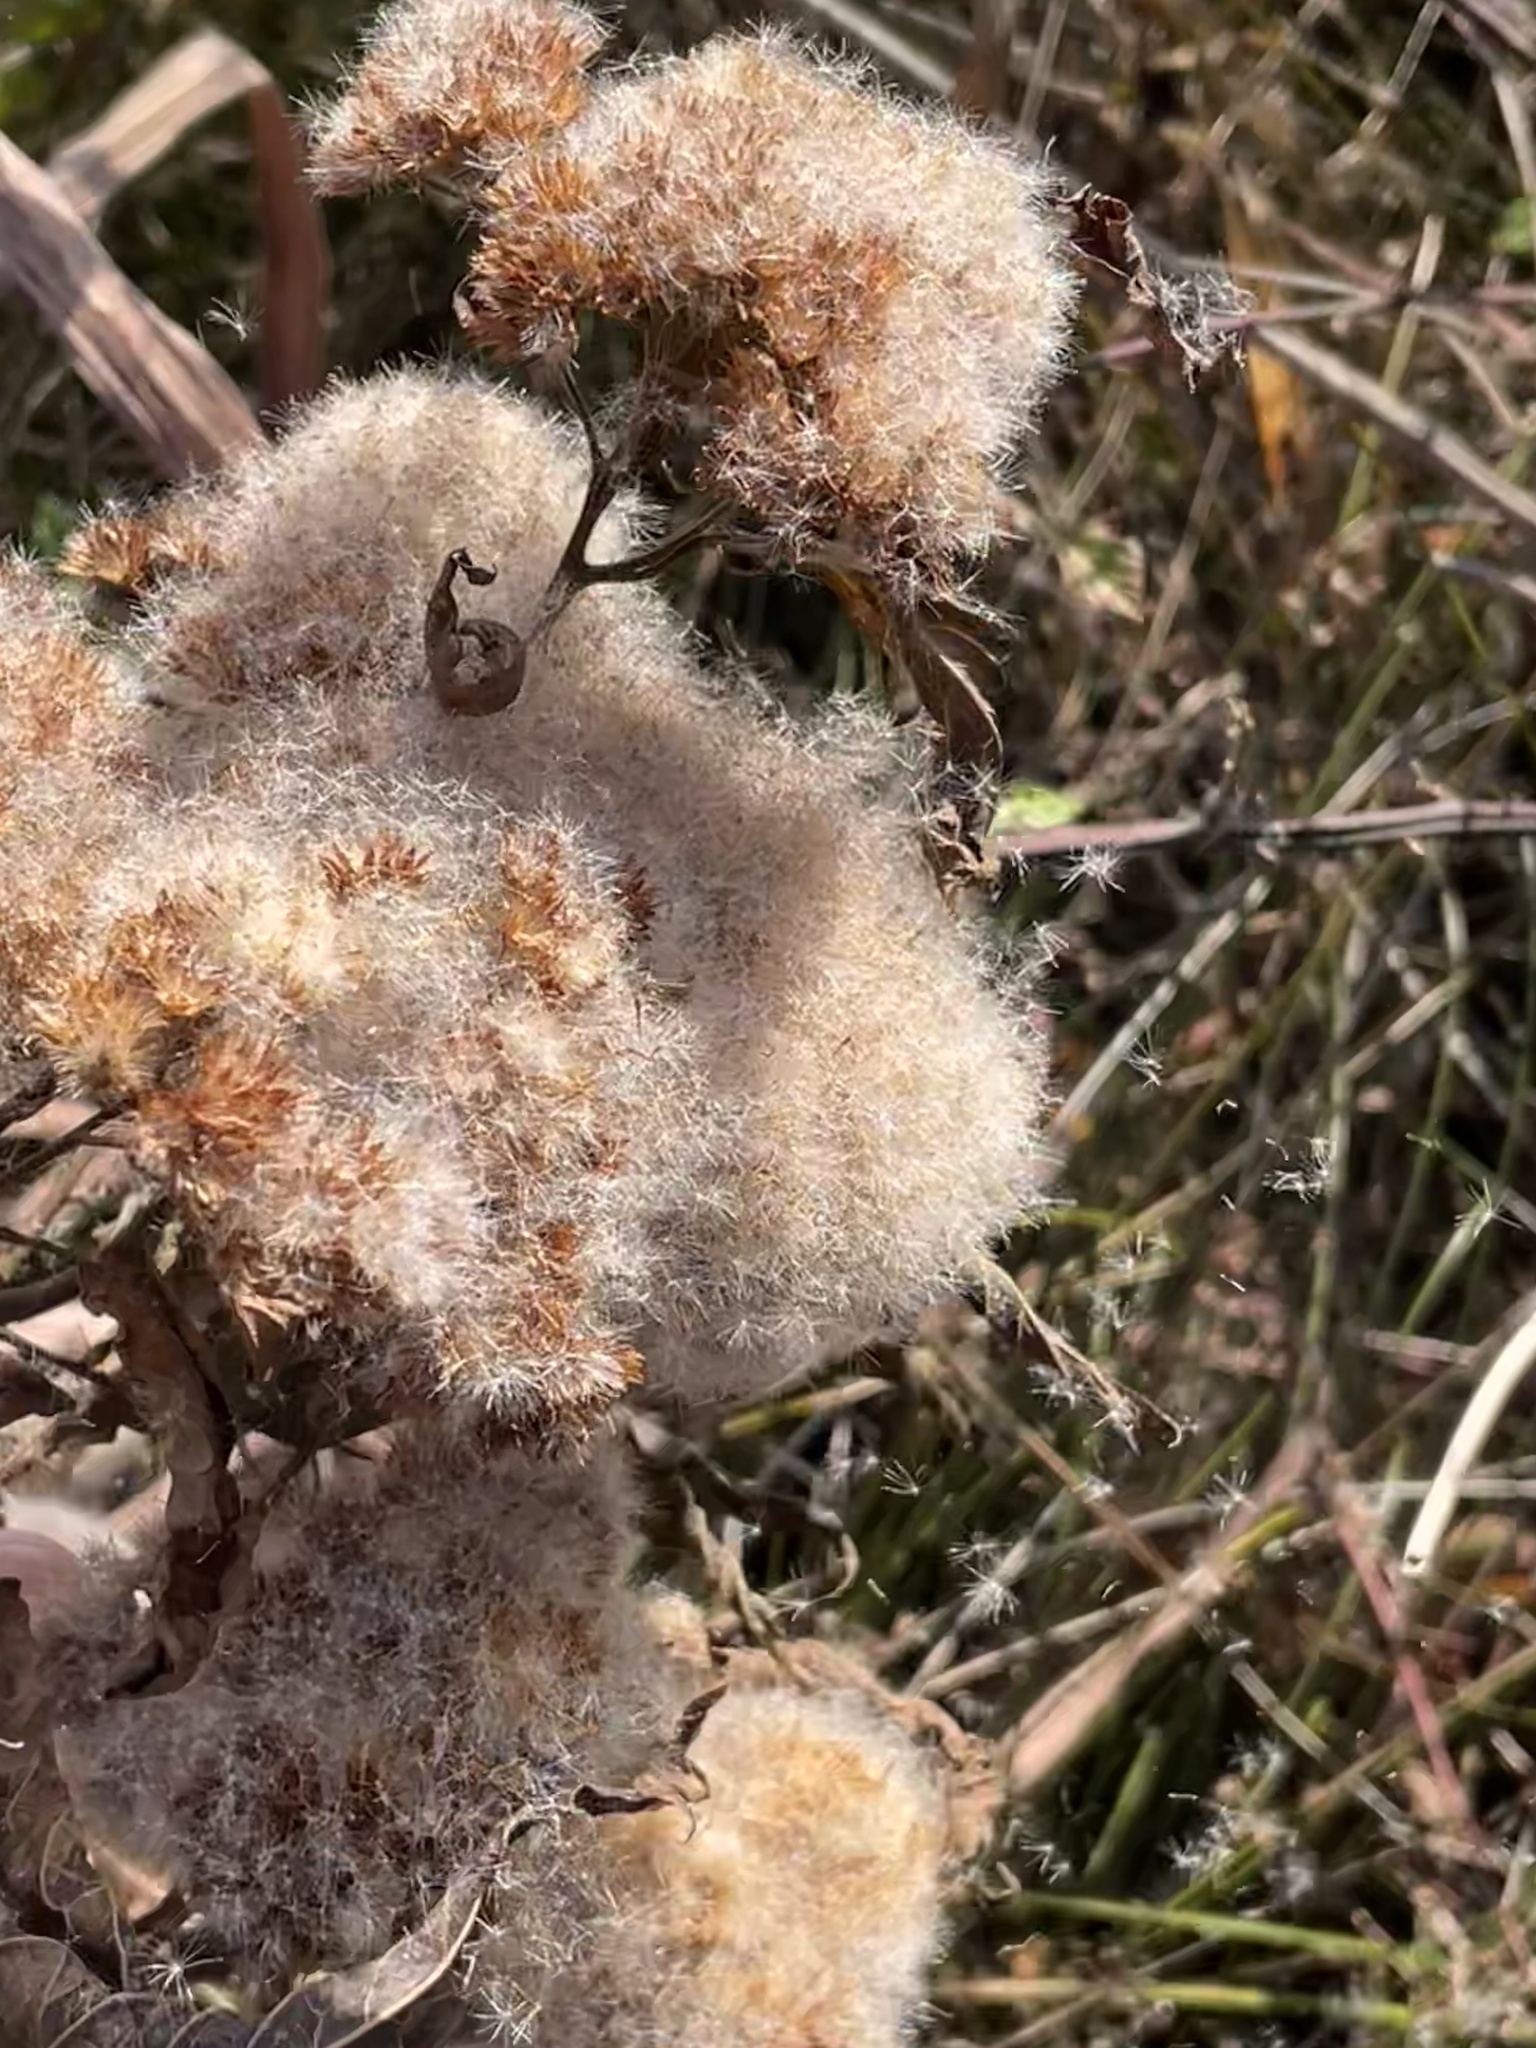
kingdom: Plantae
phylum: Tracheophyta
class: Magnoliopsida
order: Asterales
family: Asteraceae
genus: Pluchea
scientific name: Pluchea camphorata
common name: Camphor pluchea
